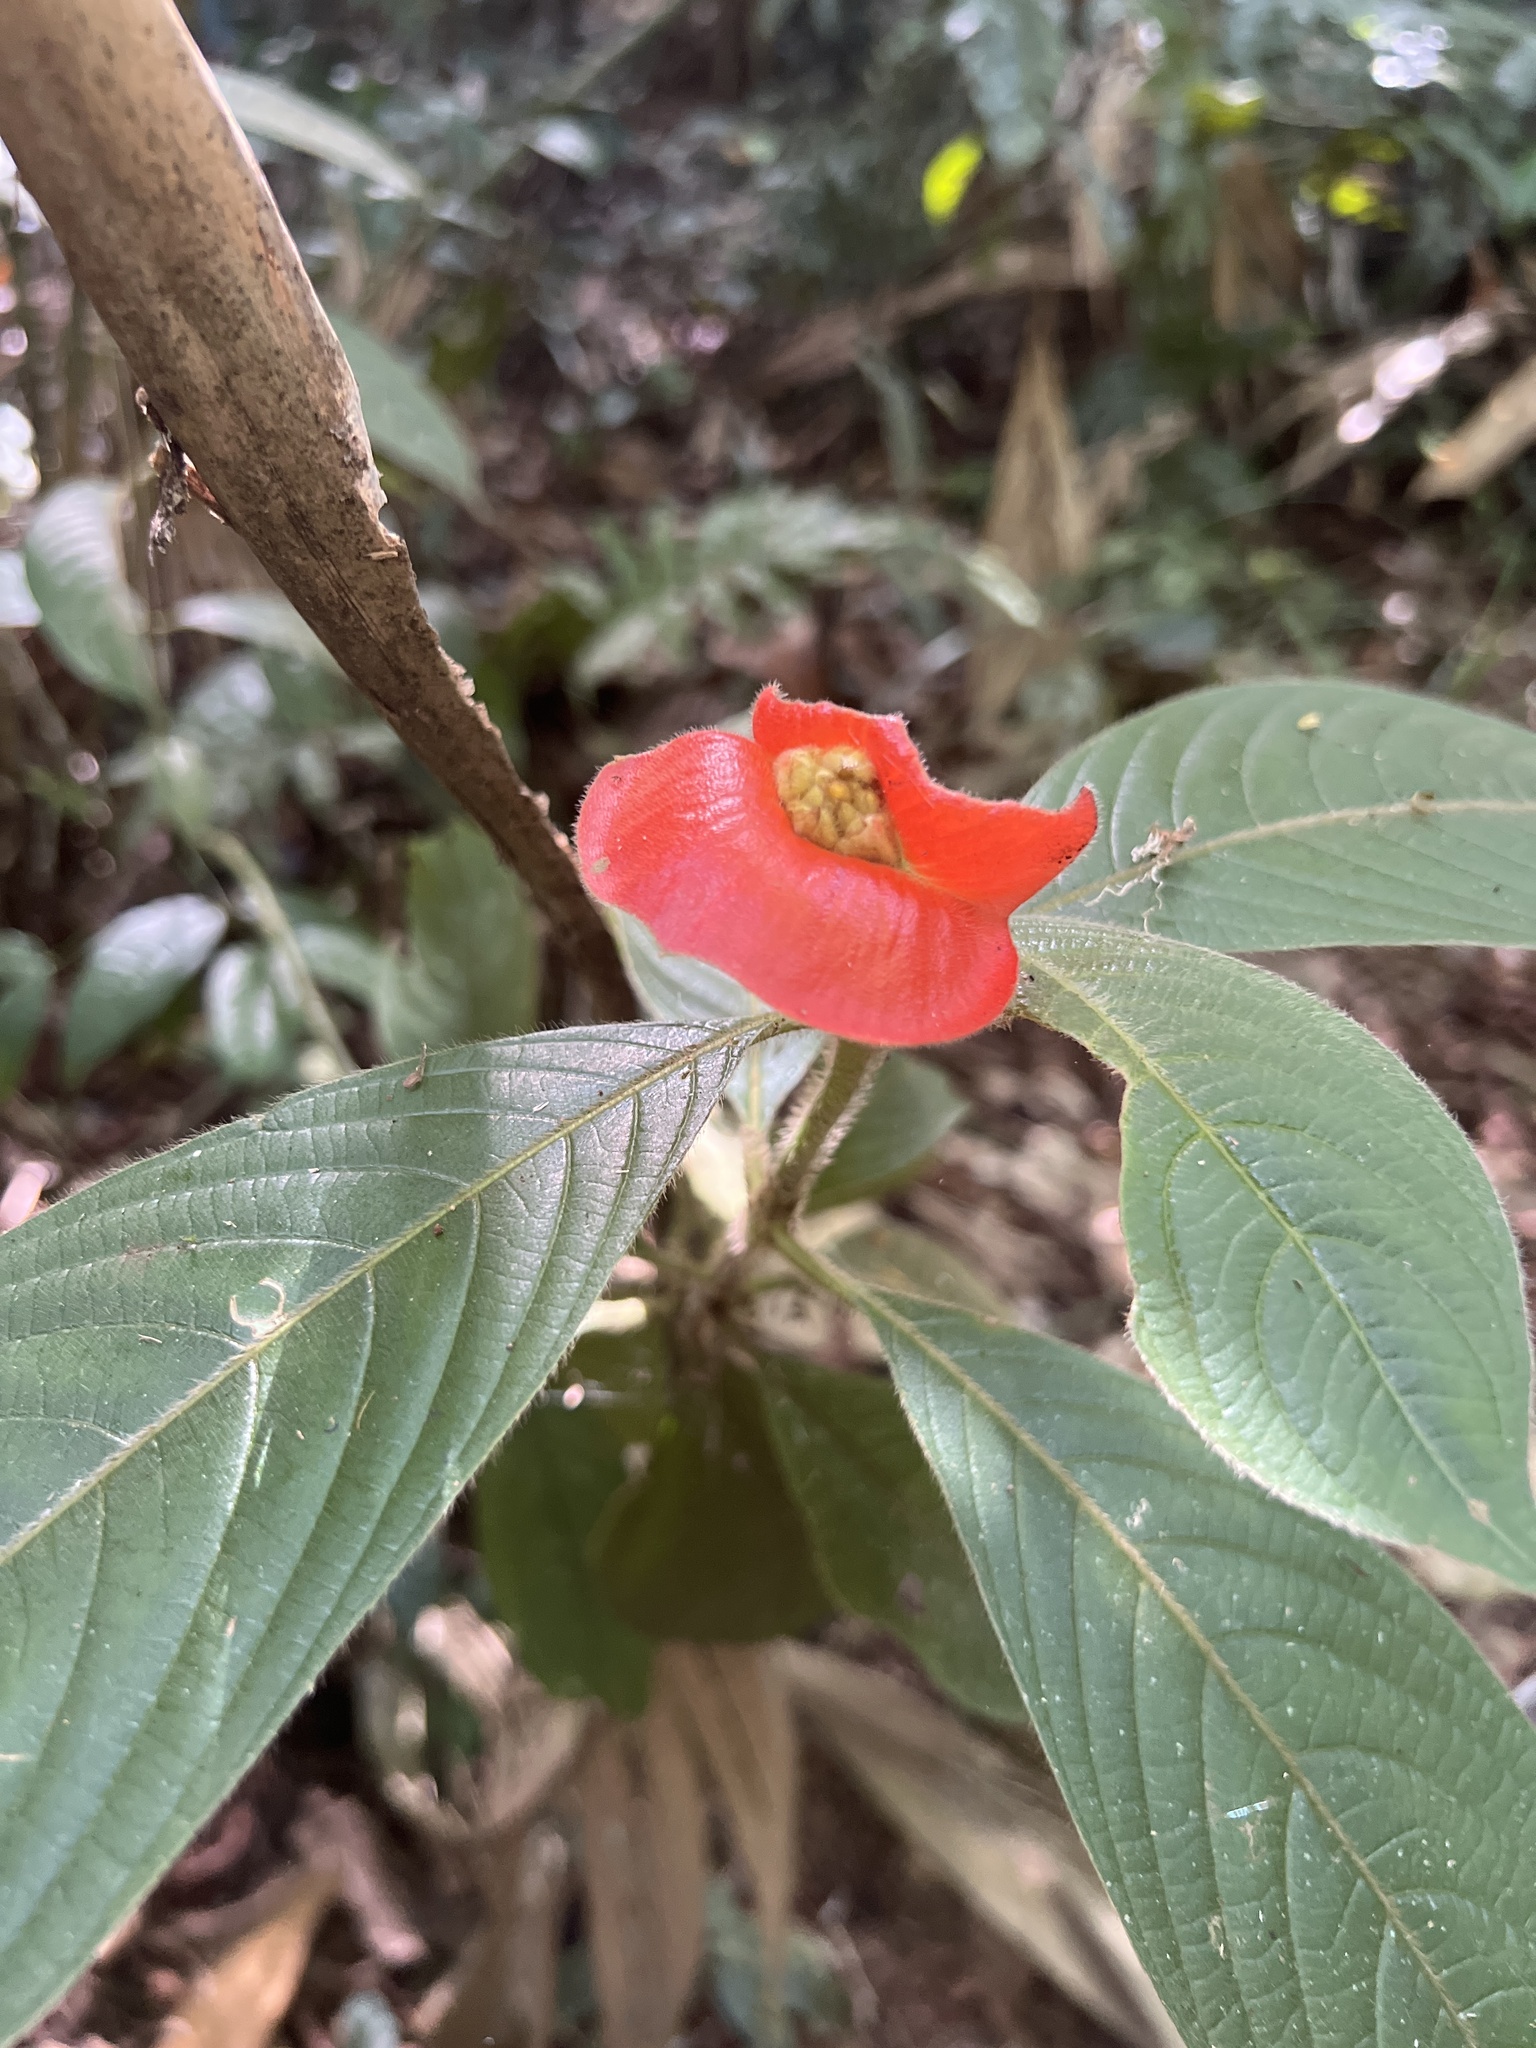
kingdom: Plantae
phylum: Tracheophyta
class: Magnoliopsida
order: Gentianales
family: Rubiaceae
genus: Palicourea
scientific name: Palicourea tomentosa
